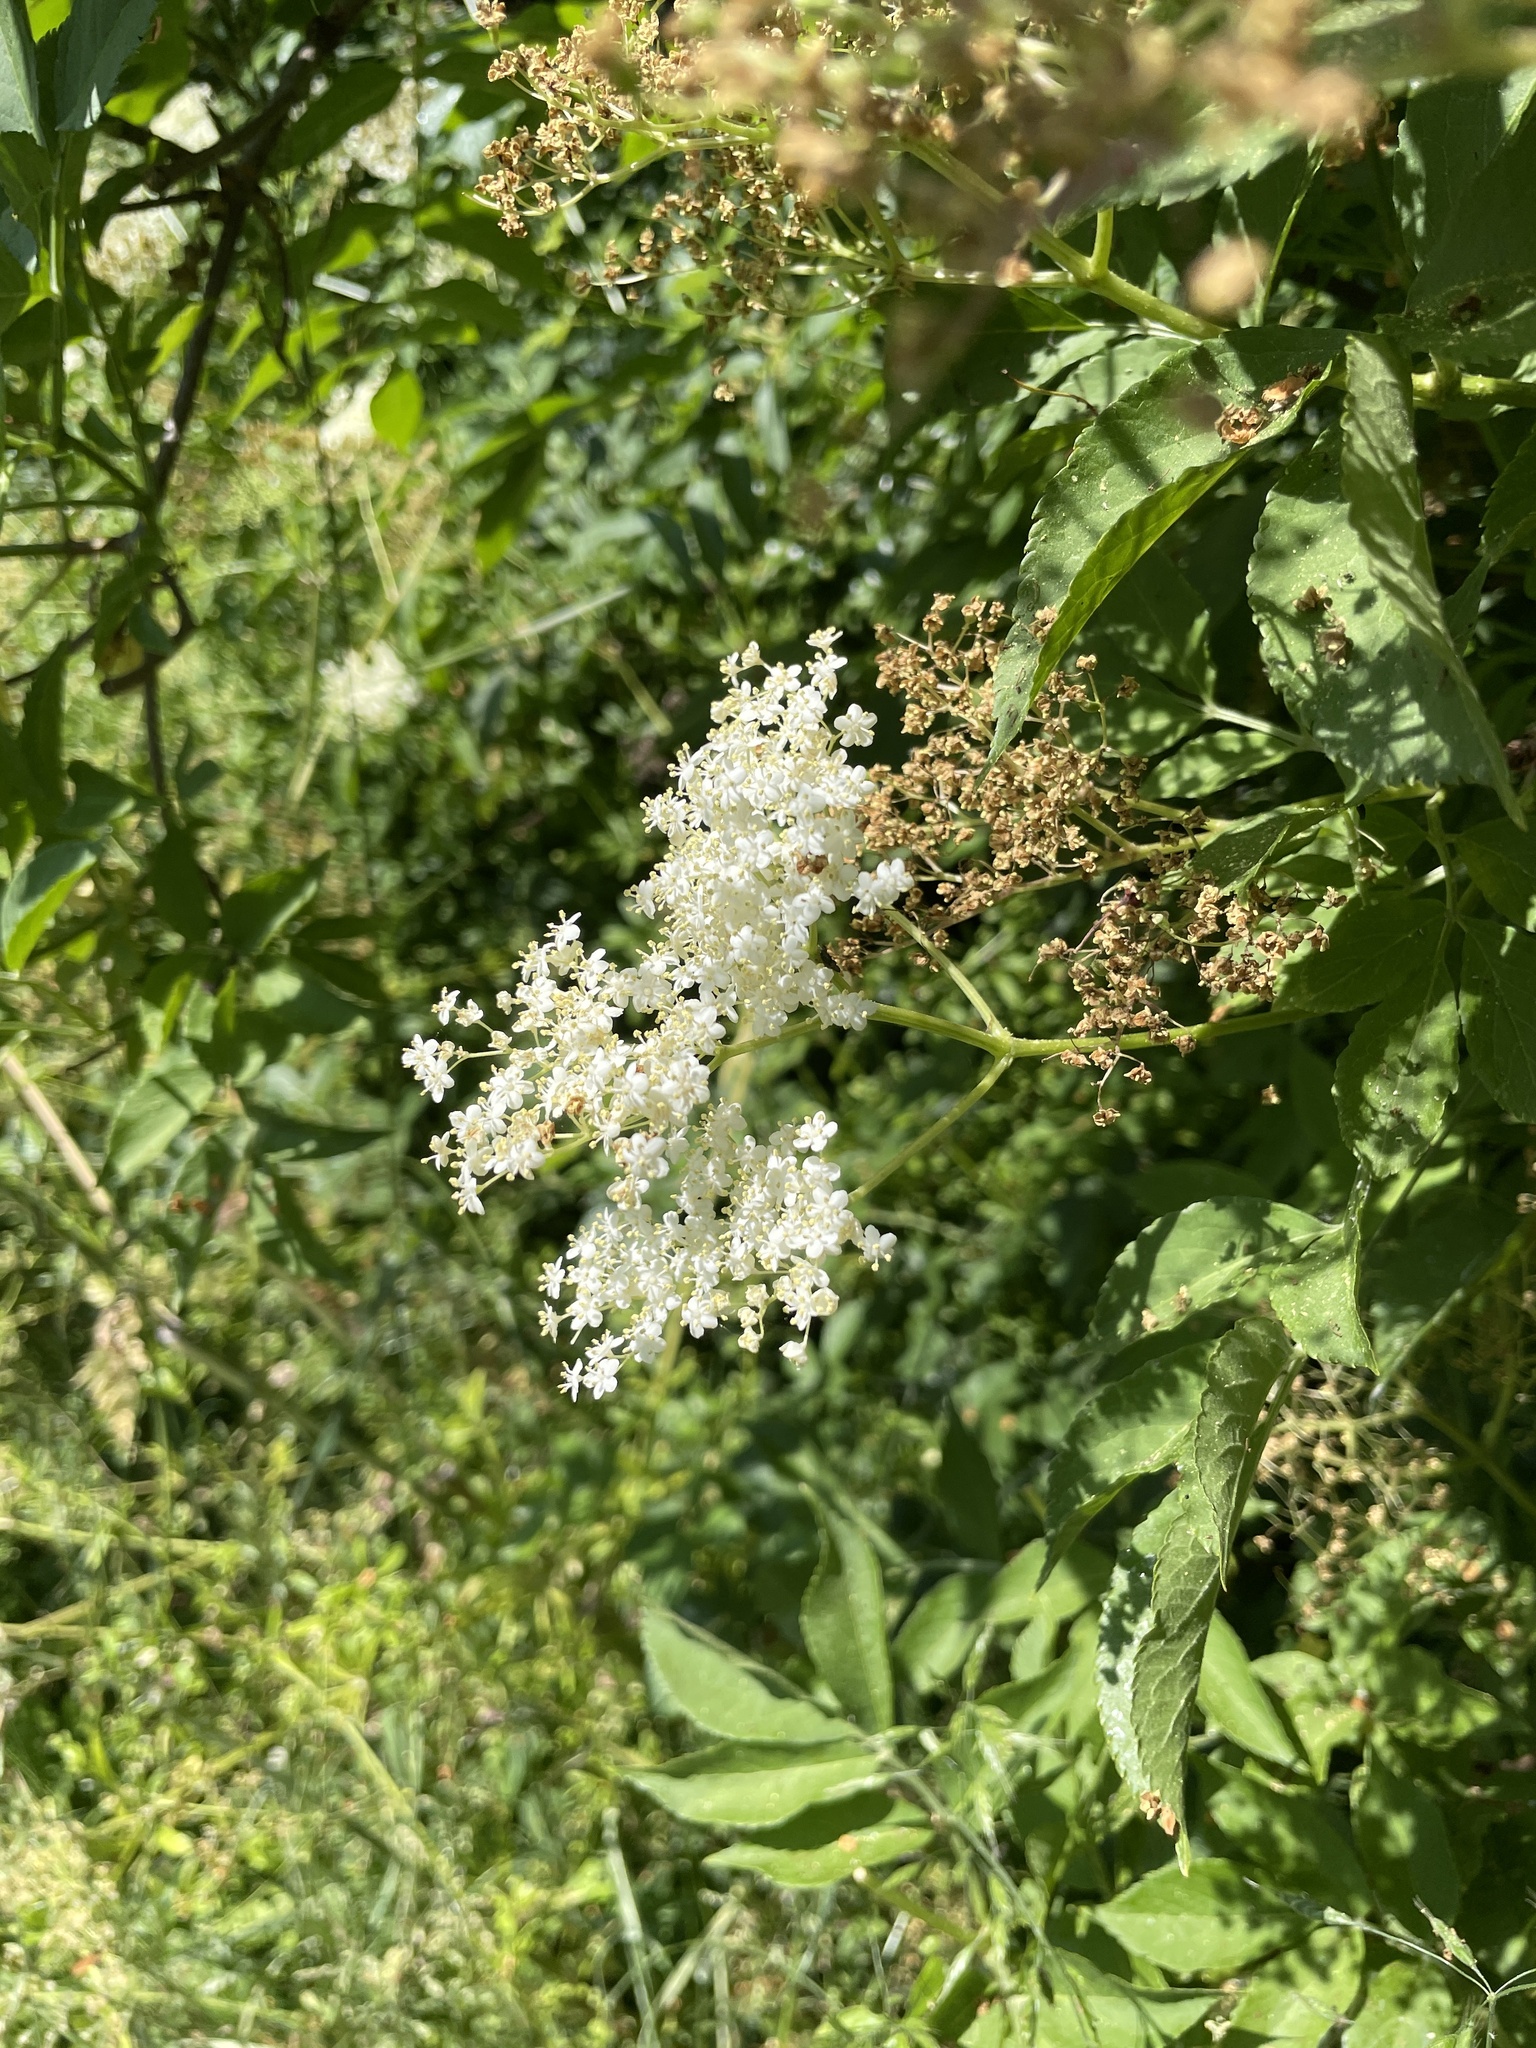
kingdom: Plantae
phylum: Tracheophyta
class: Magnoliopsida
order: Dipsacales
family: Viburnaceae
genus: Sambucus
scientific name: Sambucus nigra
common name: Elder
